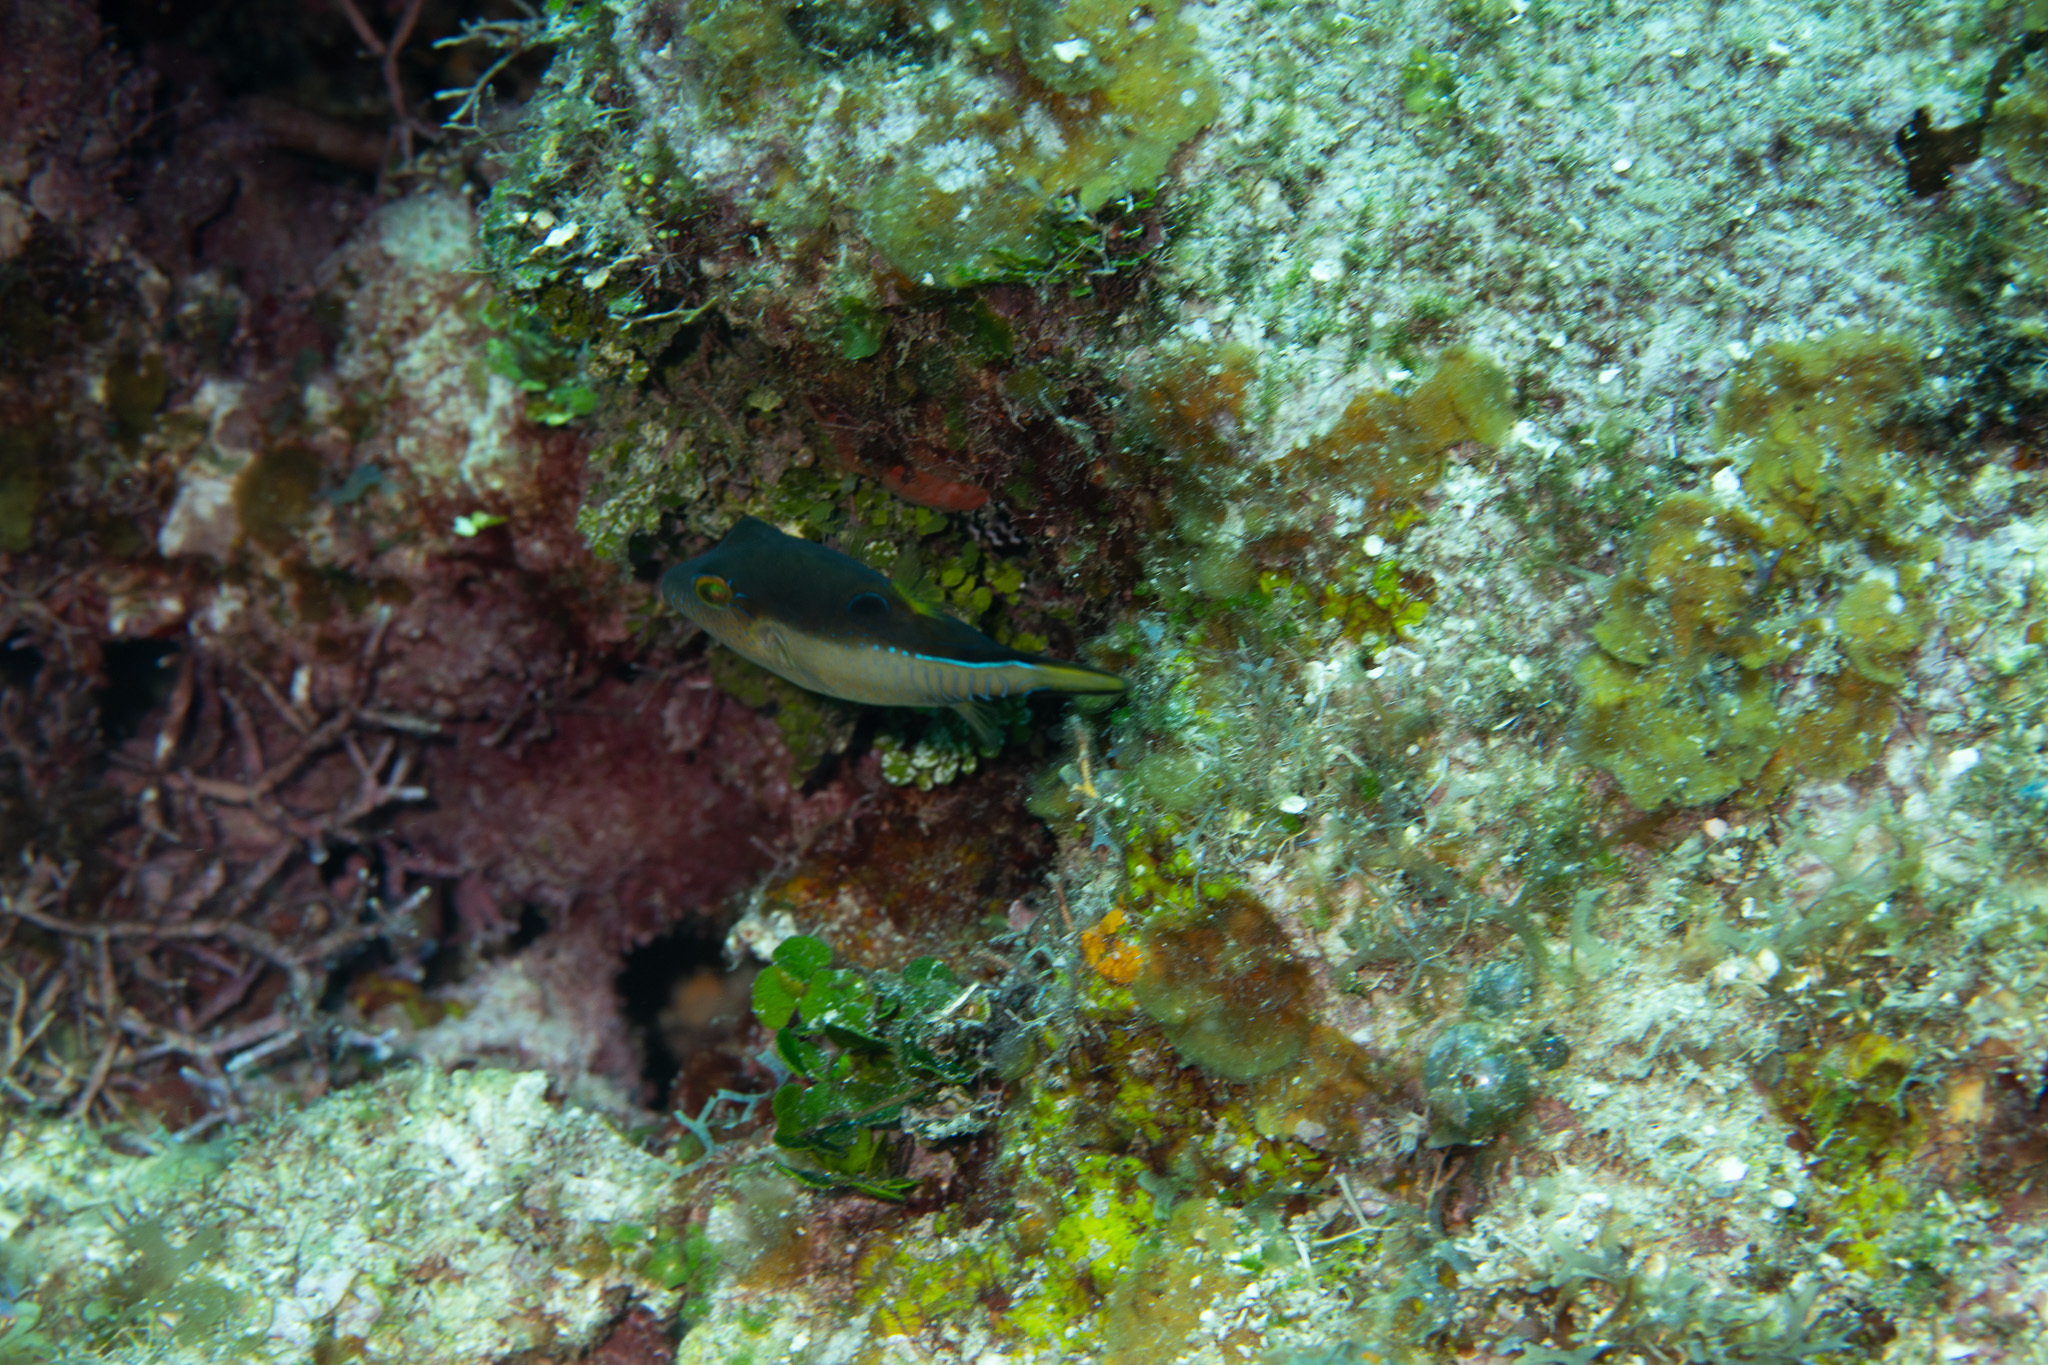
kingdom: Animalia
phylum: Chordata
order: Tetraodontiformes
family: Tetraodontidae
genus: Canthigaster
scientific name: Canthigaster rostrata
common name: Caribbean sharpnose-puffer
